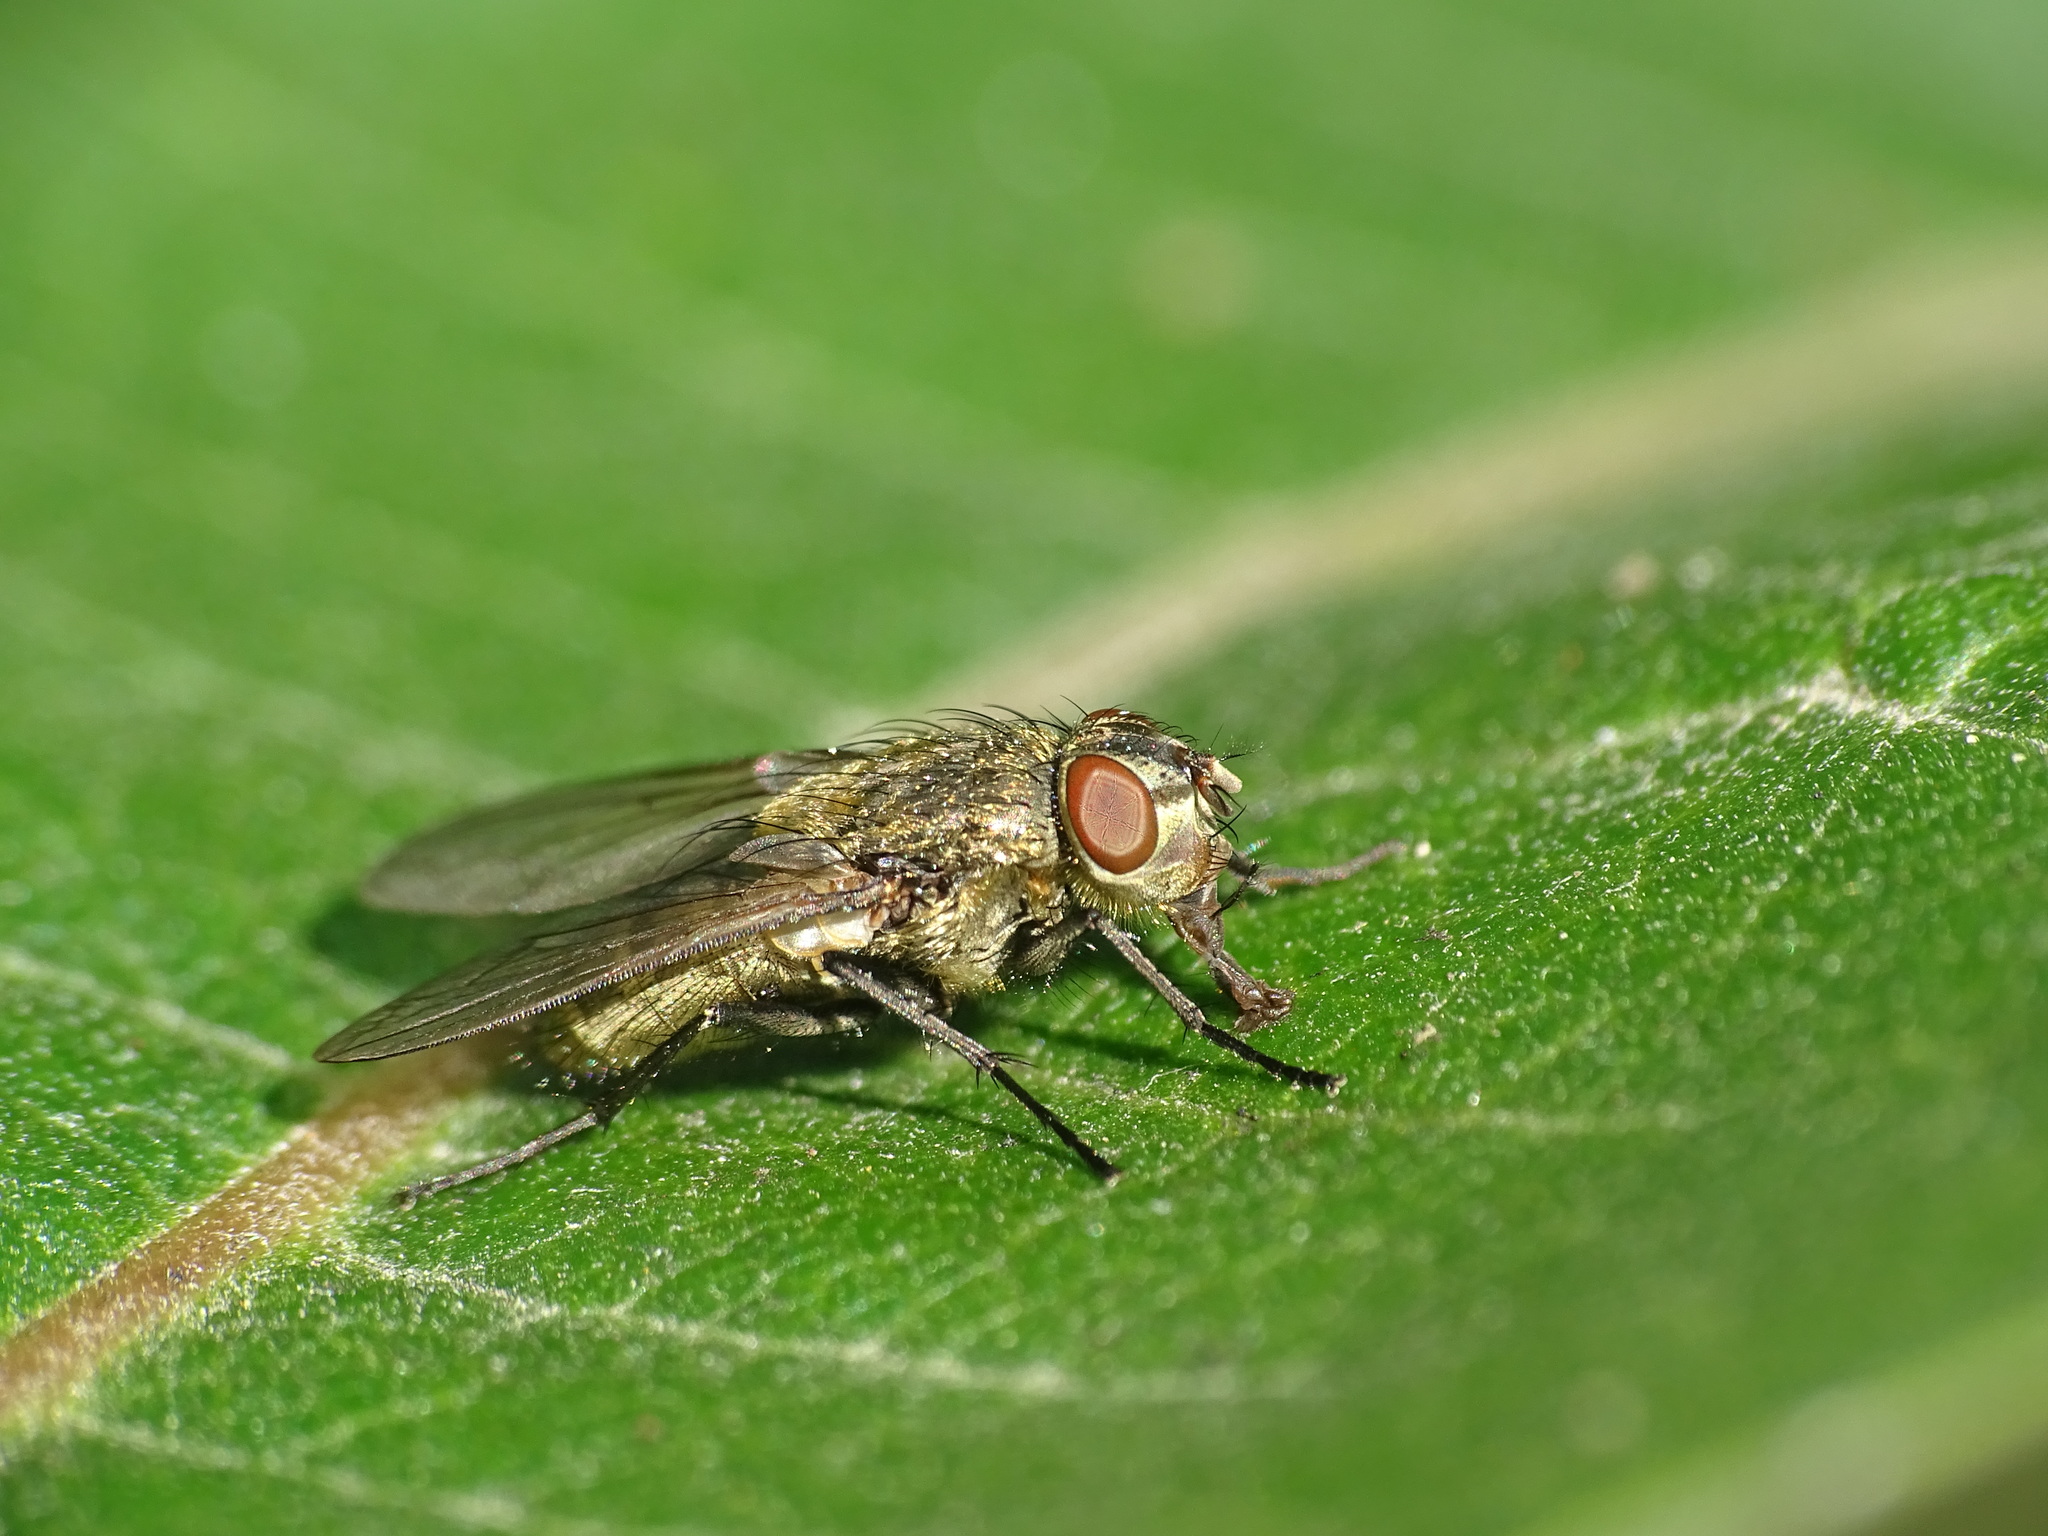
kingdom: Animalia
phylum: Arthropoda
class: Insecta
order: Diptera
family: Polleniidae
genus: Pollenia
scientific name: Pollenia
